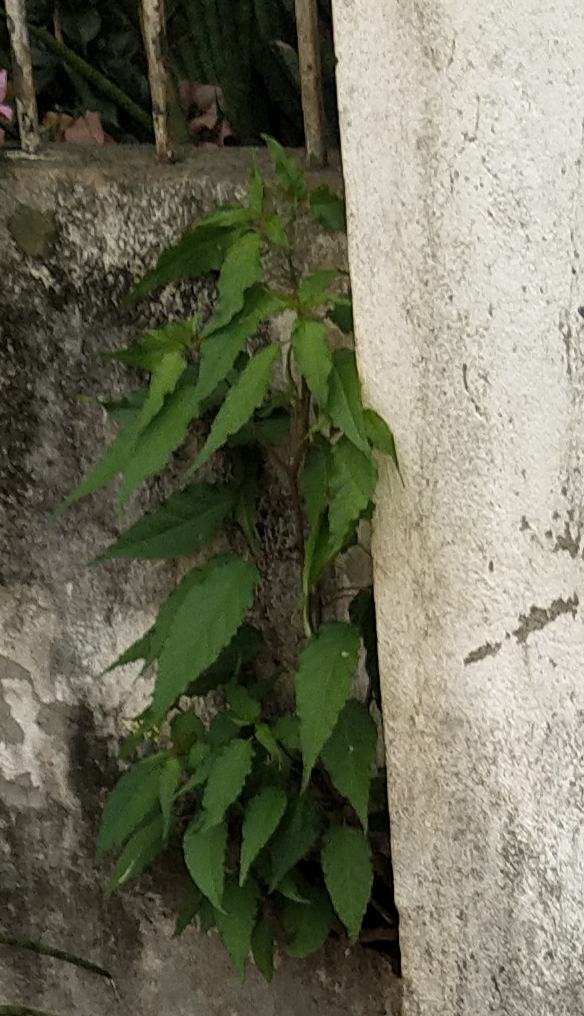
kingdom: Plantae
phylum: Tracheophyta
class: Magnoliopsida
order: Caryophyllales
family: Phytolaccaceae
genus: Rivina
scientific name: Rivina humilis
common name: Rougeplant
